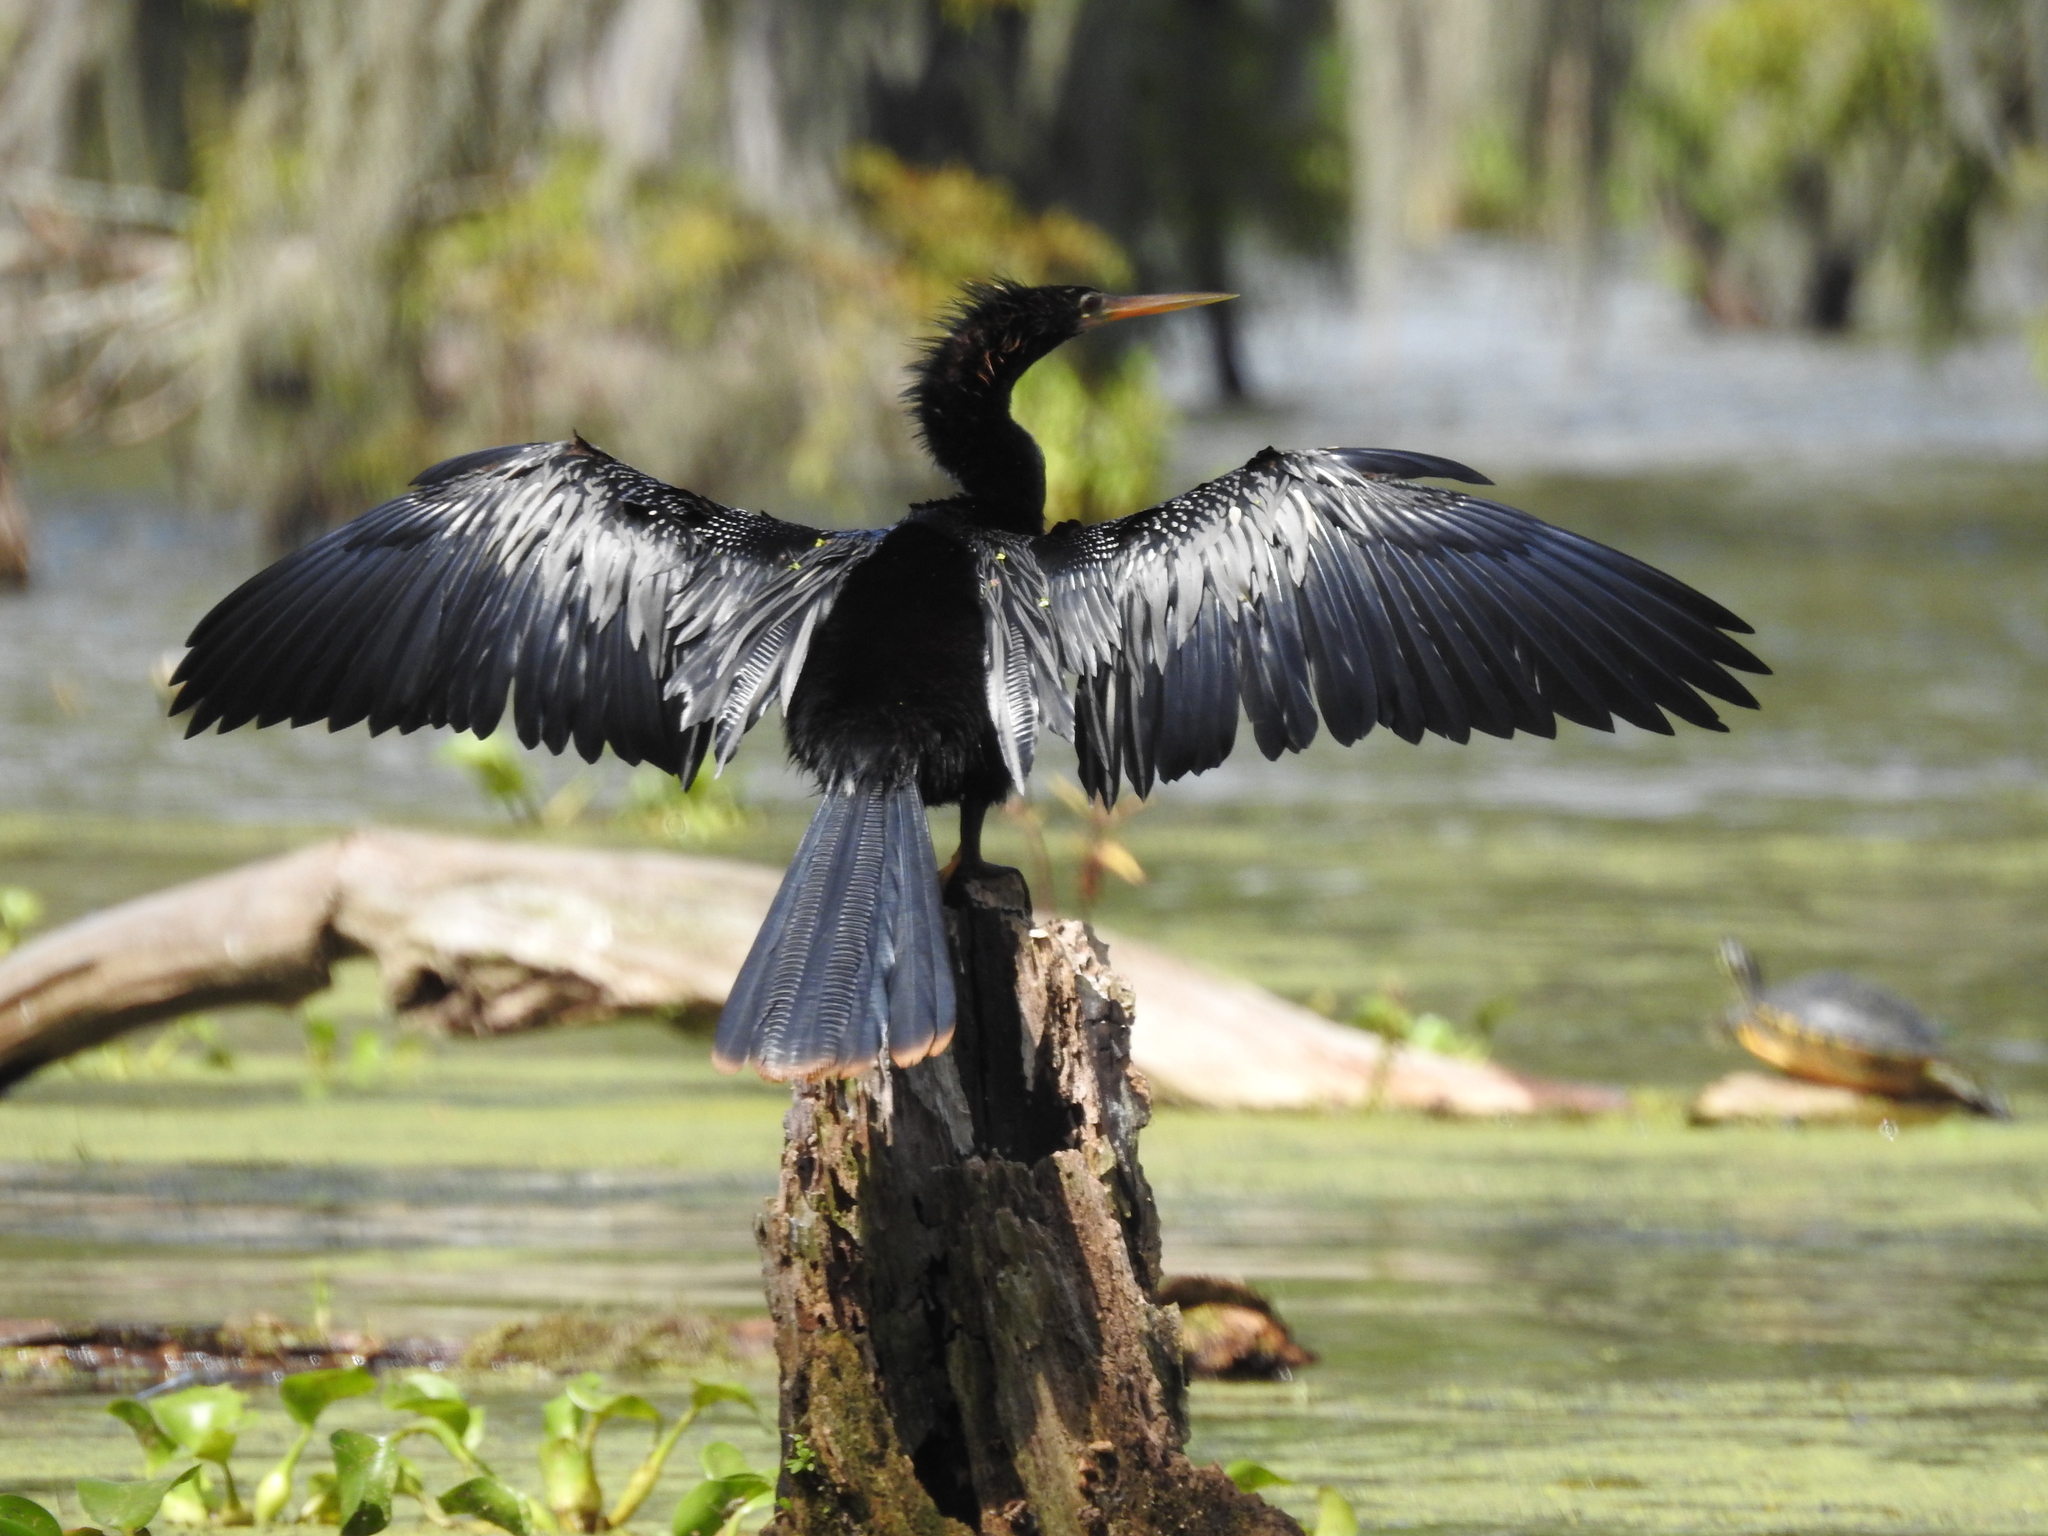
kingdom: Animalia
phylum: Chordata
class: Aves
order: Suliformes
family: Anhingidae
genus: Anhinga
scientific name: Anhinga anhinga
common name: Anhinga
